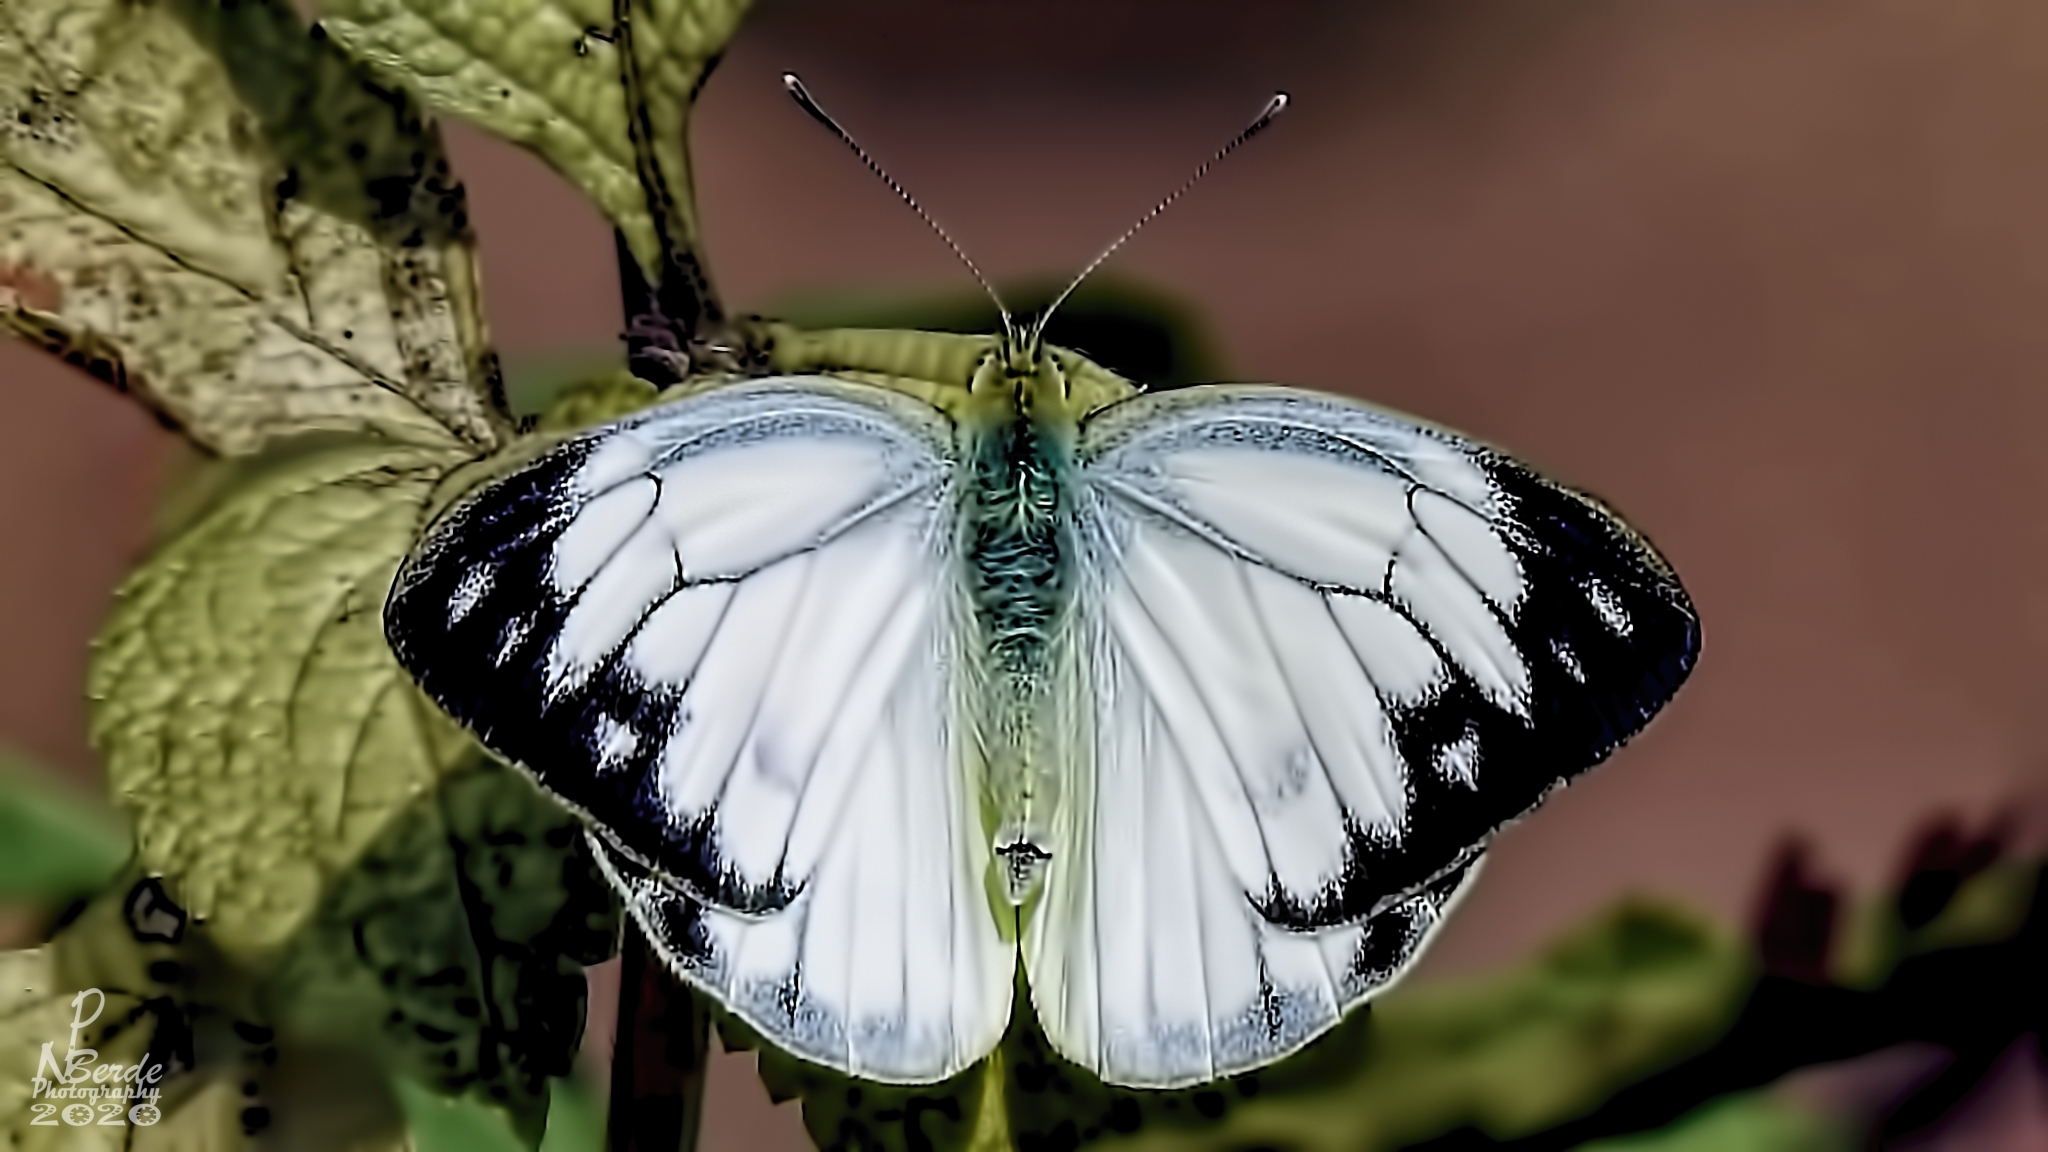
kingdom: Animalia
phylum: Arthropoda
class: Insecta
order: Lepidoptera
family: Pieridae
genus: Cepora
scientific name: Cepora nerissa
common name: Common gull
